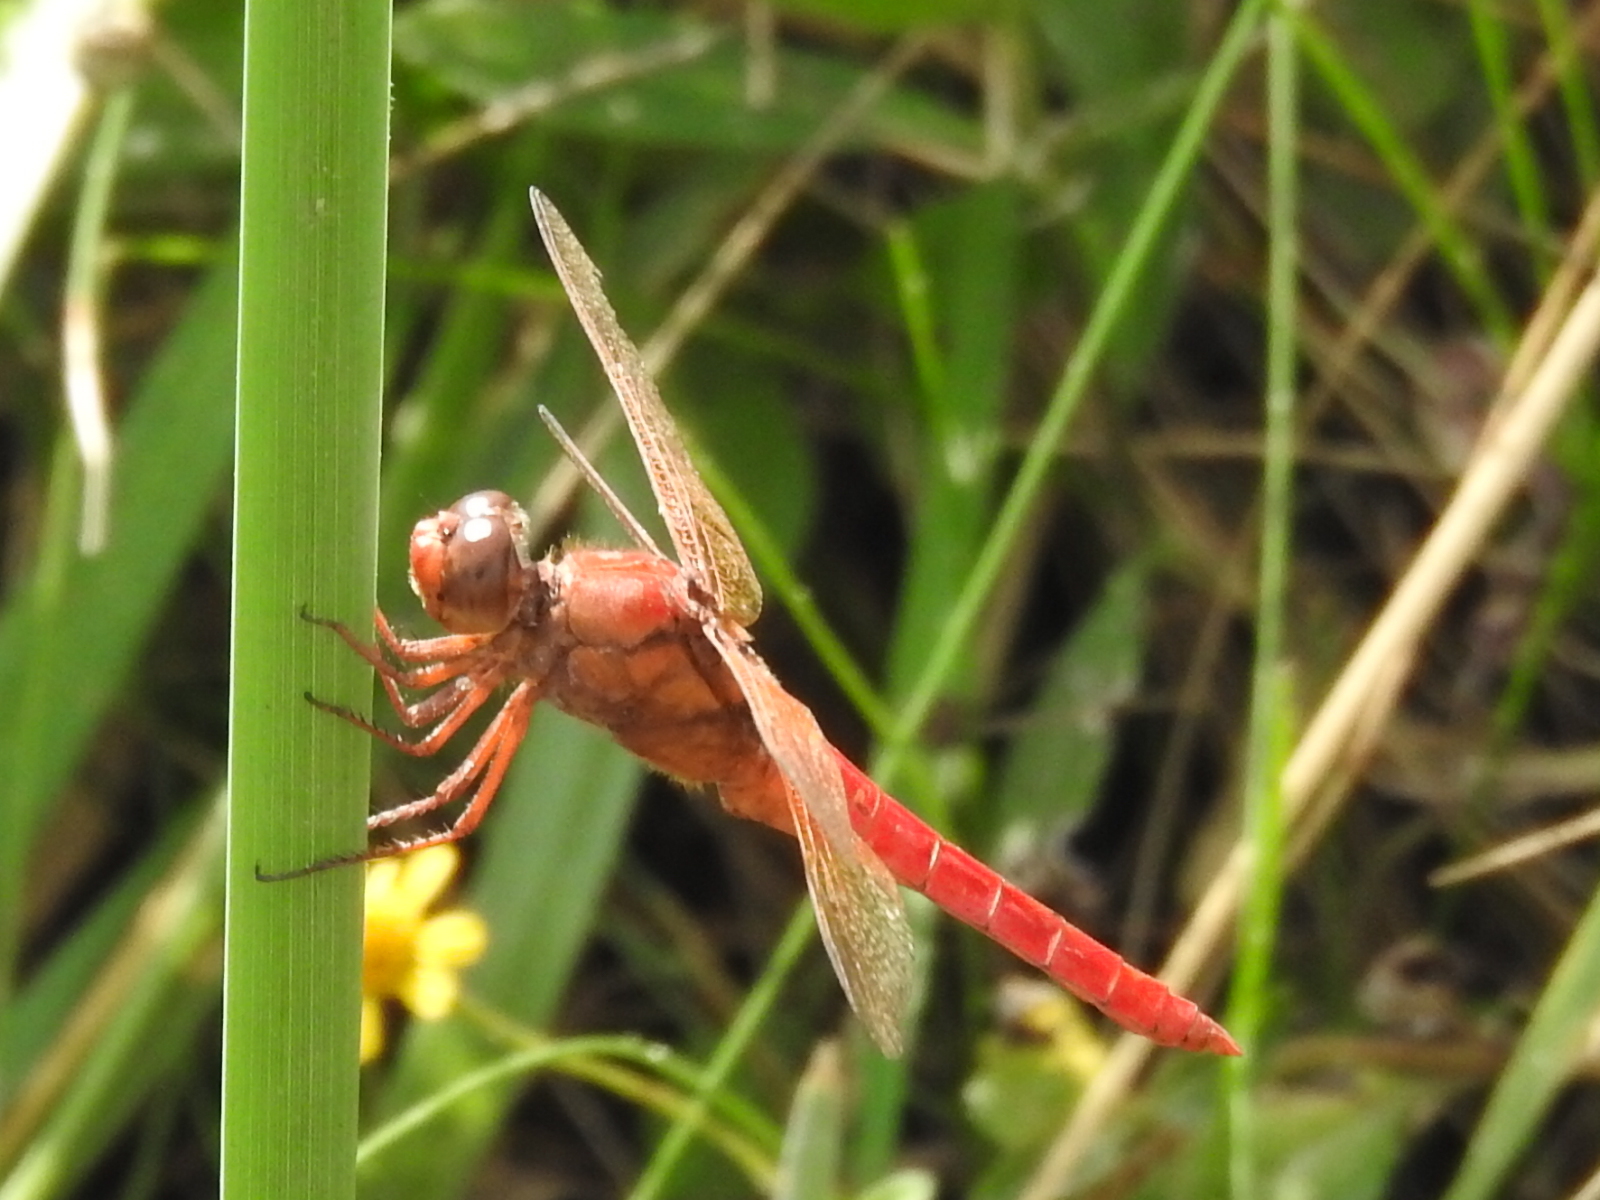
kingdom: Animalia
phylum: Arthropoda
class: Insecta
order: Odonata
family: Libellulidae
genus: Libellula
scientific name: Libellula croceipennis
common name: Neon skimmer
